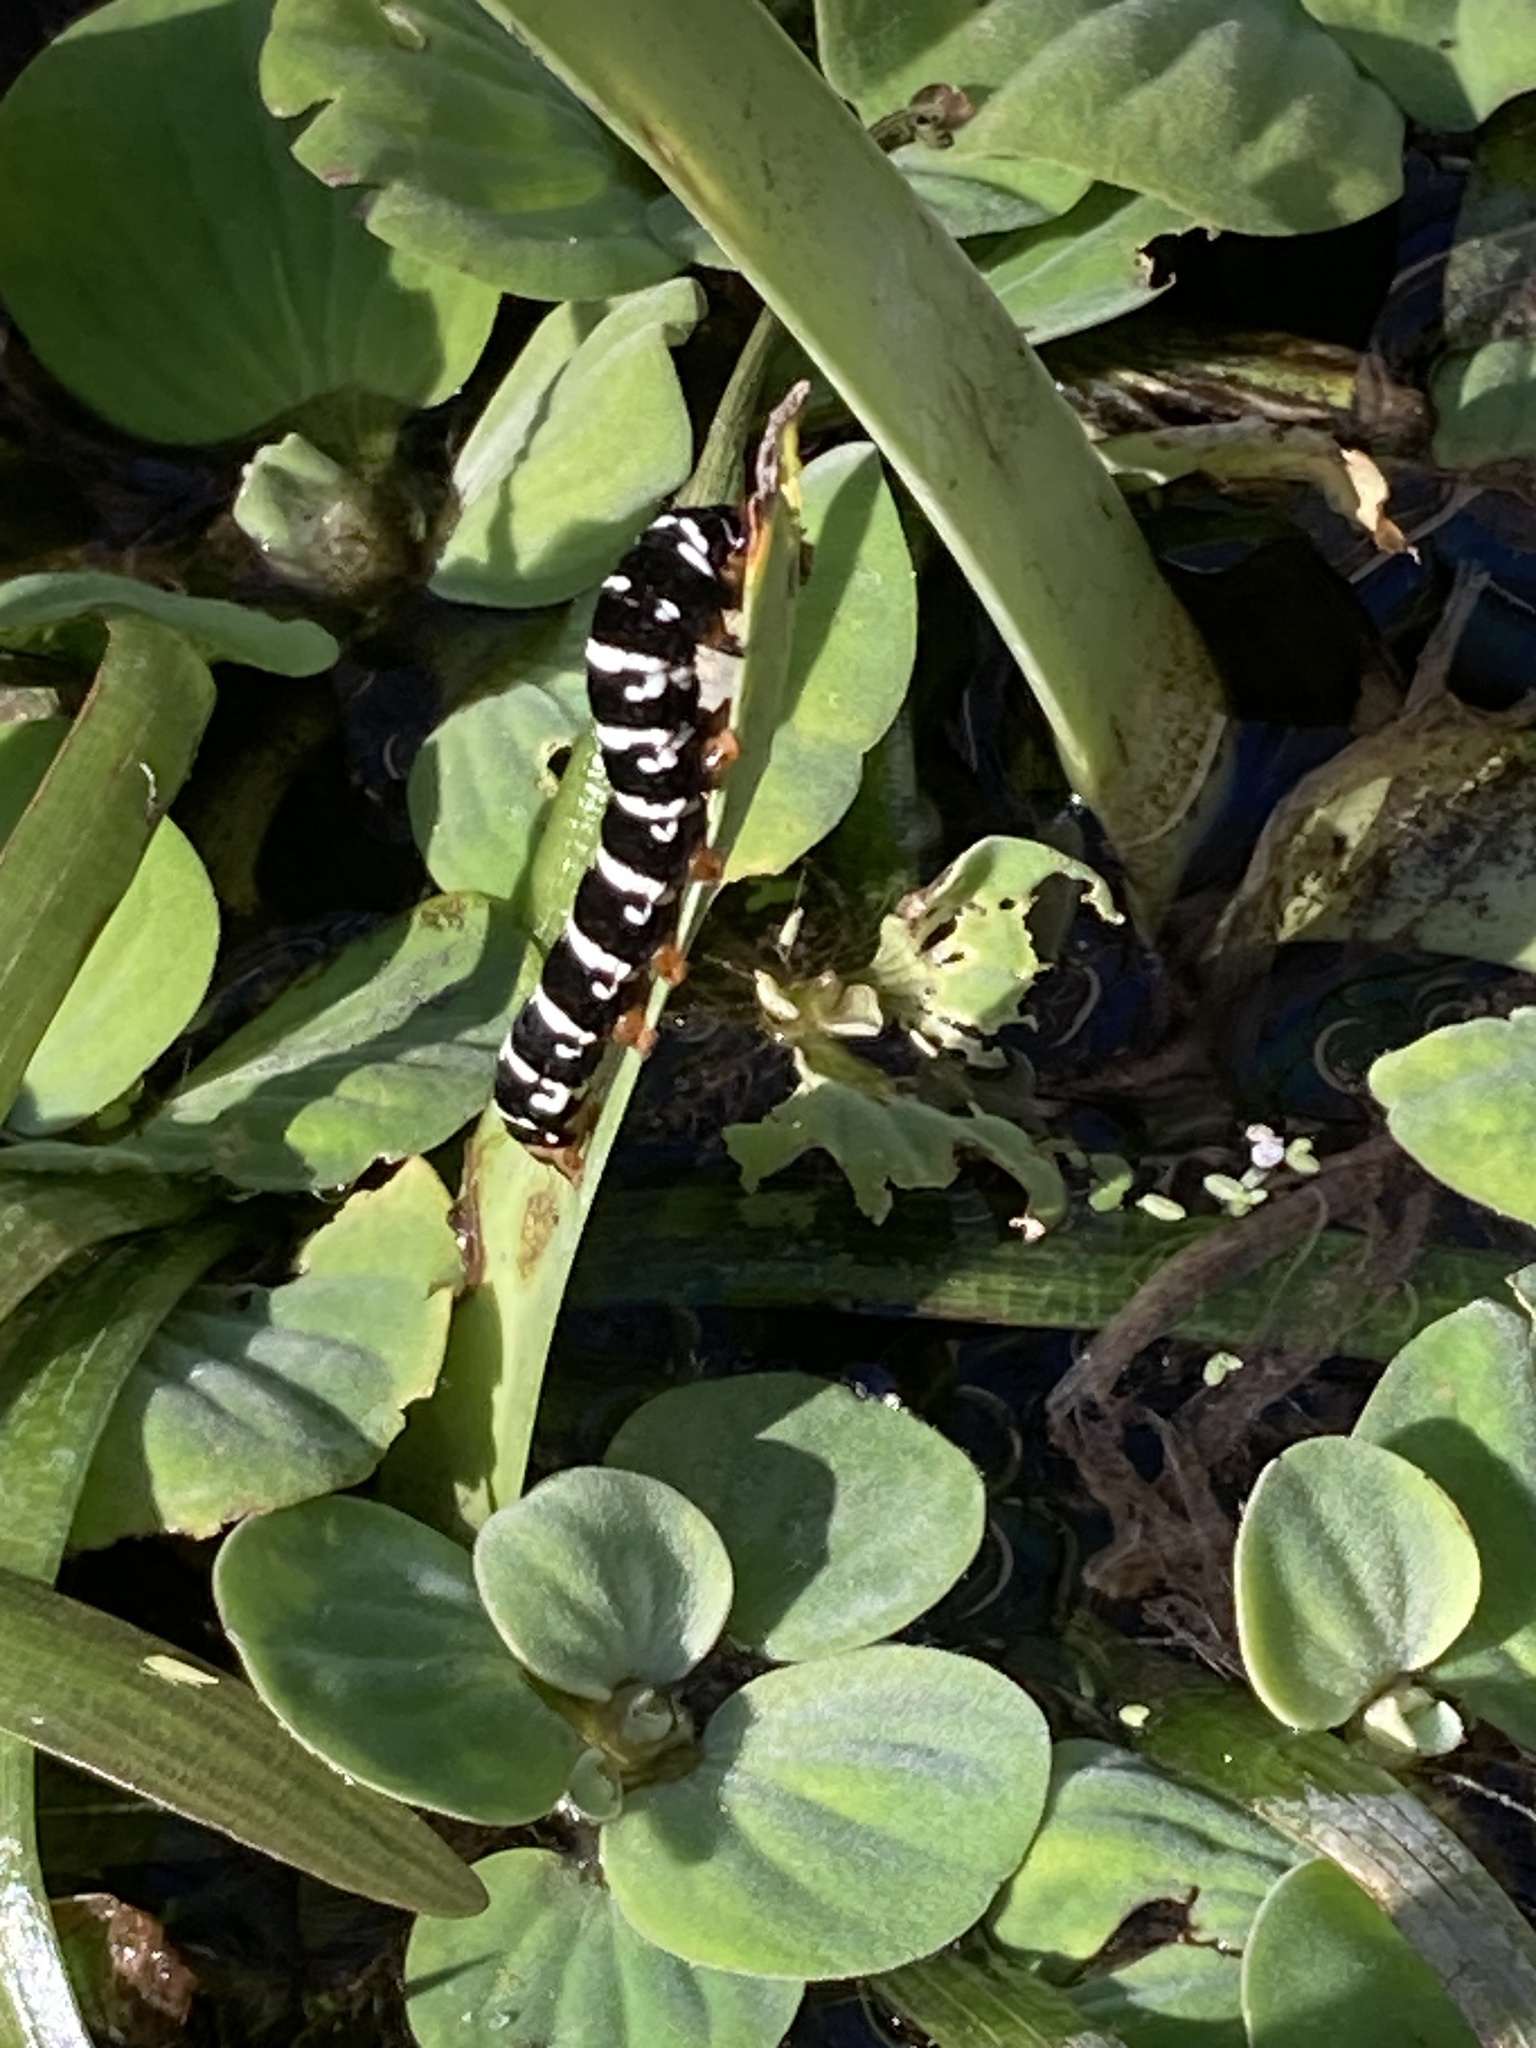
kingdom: Animalia
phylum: Arthropoda
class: Insecta
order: Lepidoptera
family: Noctuidae
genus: Xanthopastis
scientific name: Xanthopastis regnatrix
